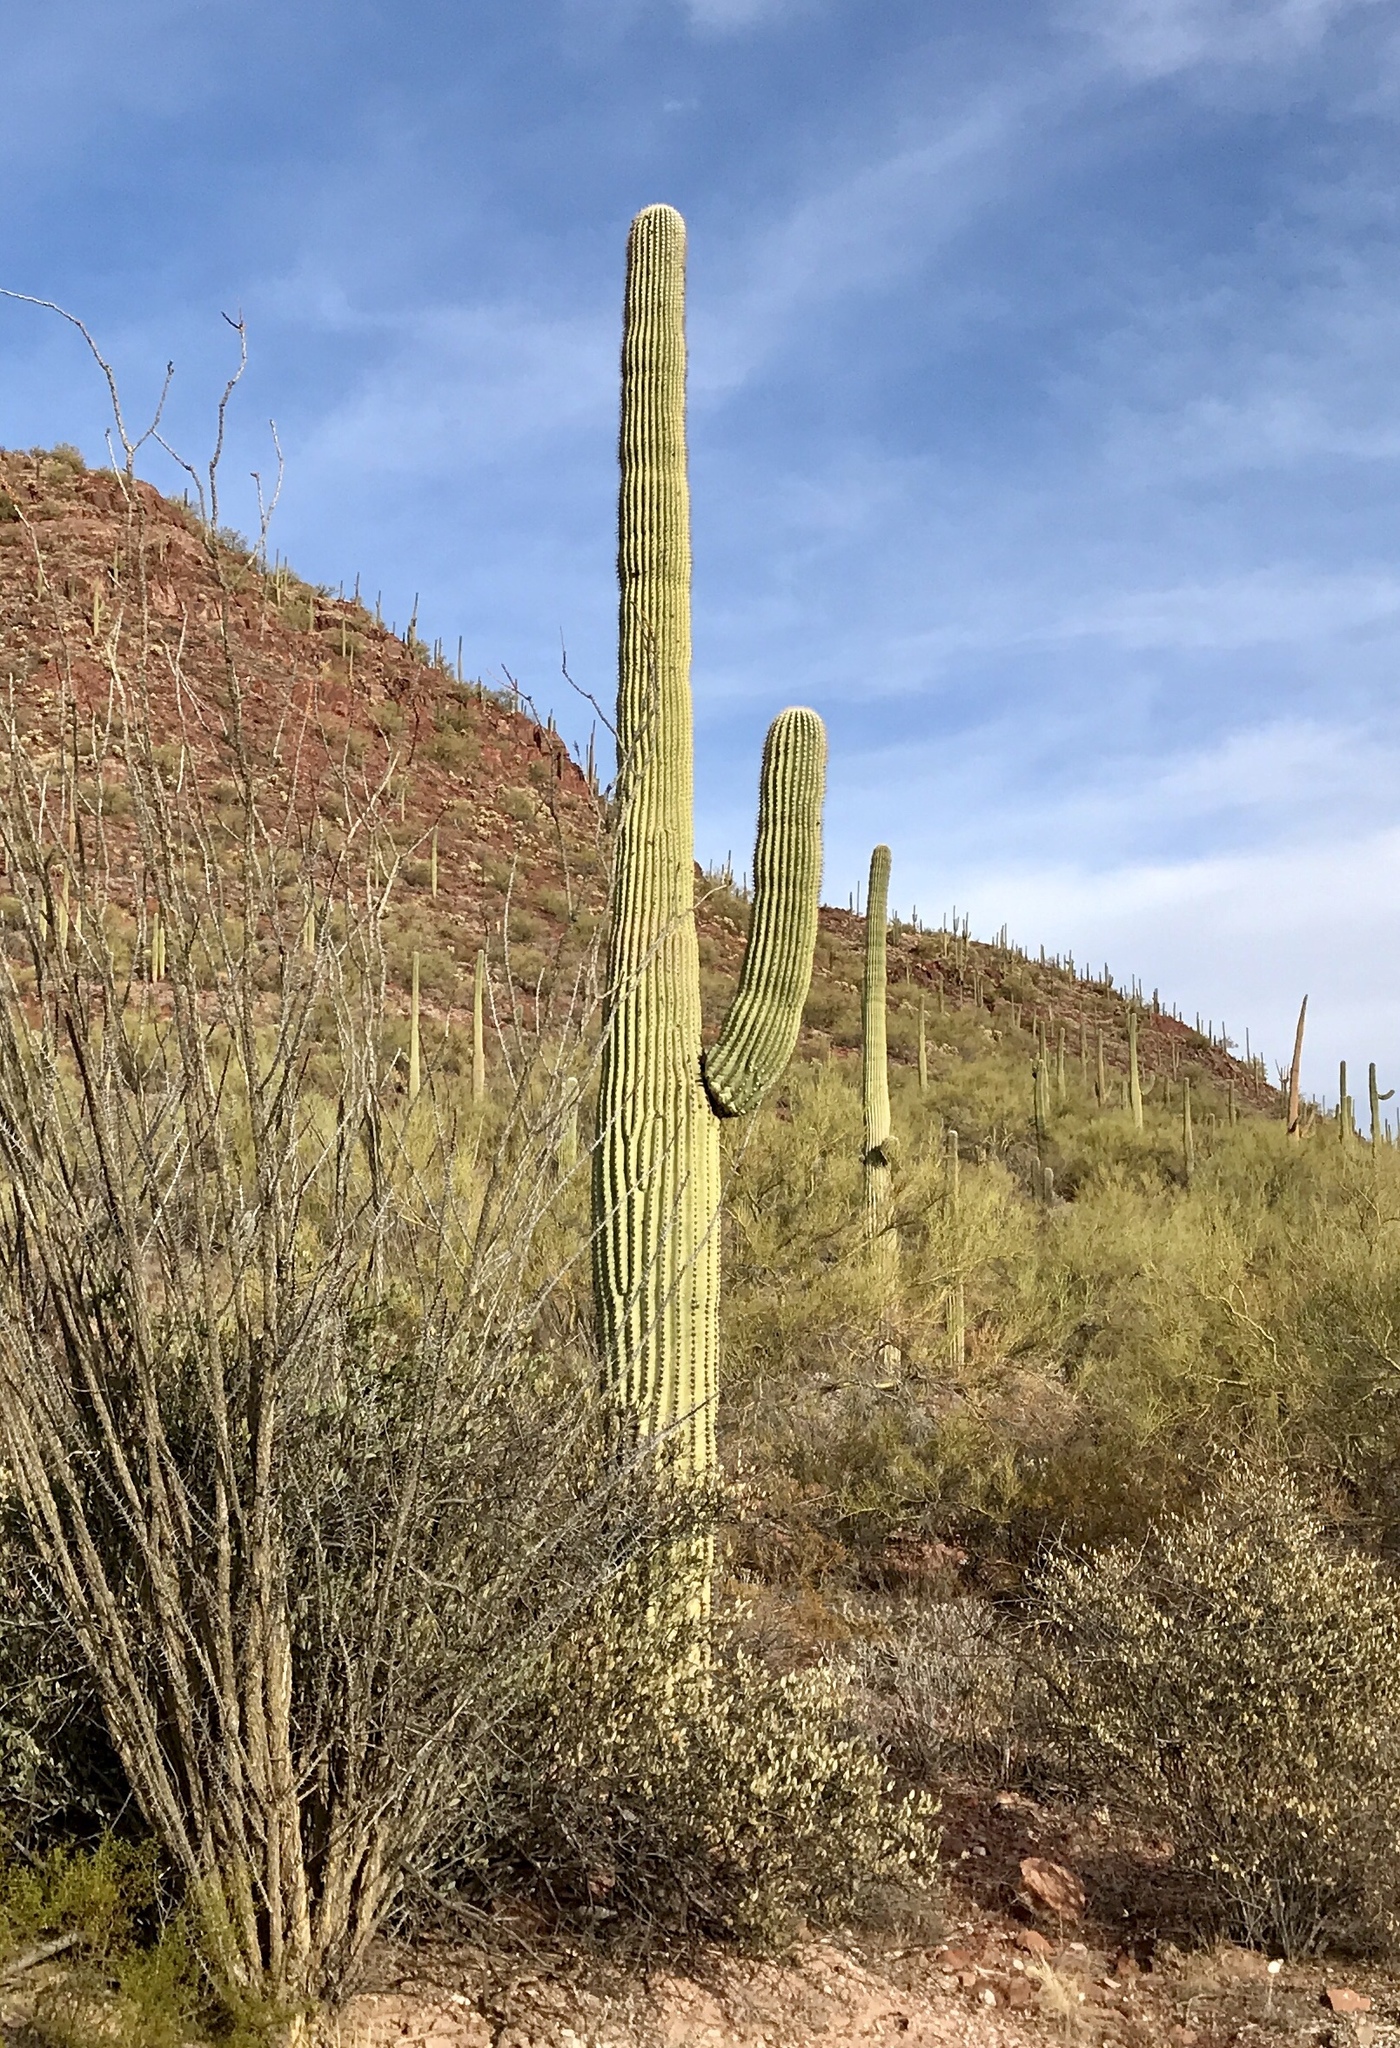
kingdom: Plantae
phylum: Tracheophyta
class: Magnoliopsida
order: Caryophyllales
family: Cactaceae
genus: Carnegiea
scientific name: Carnegiea gigantea
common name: Saguaro
